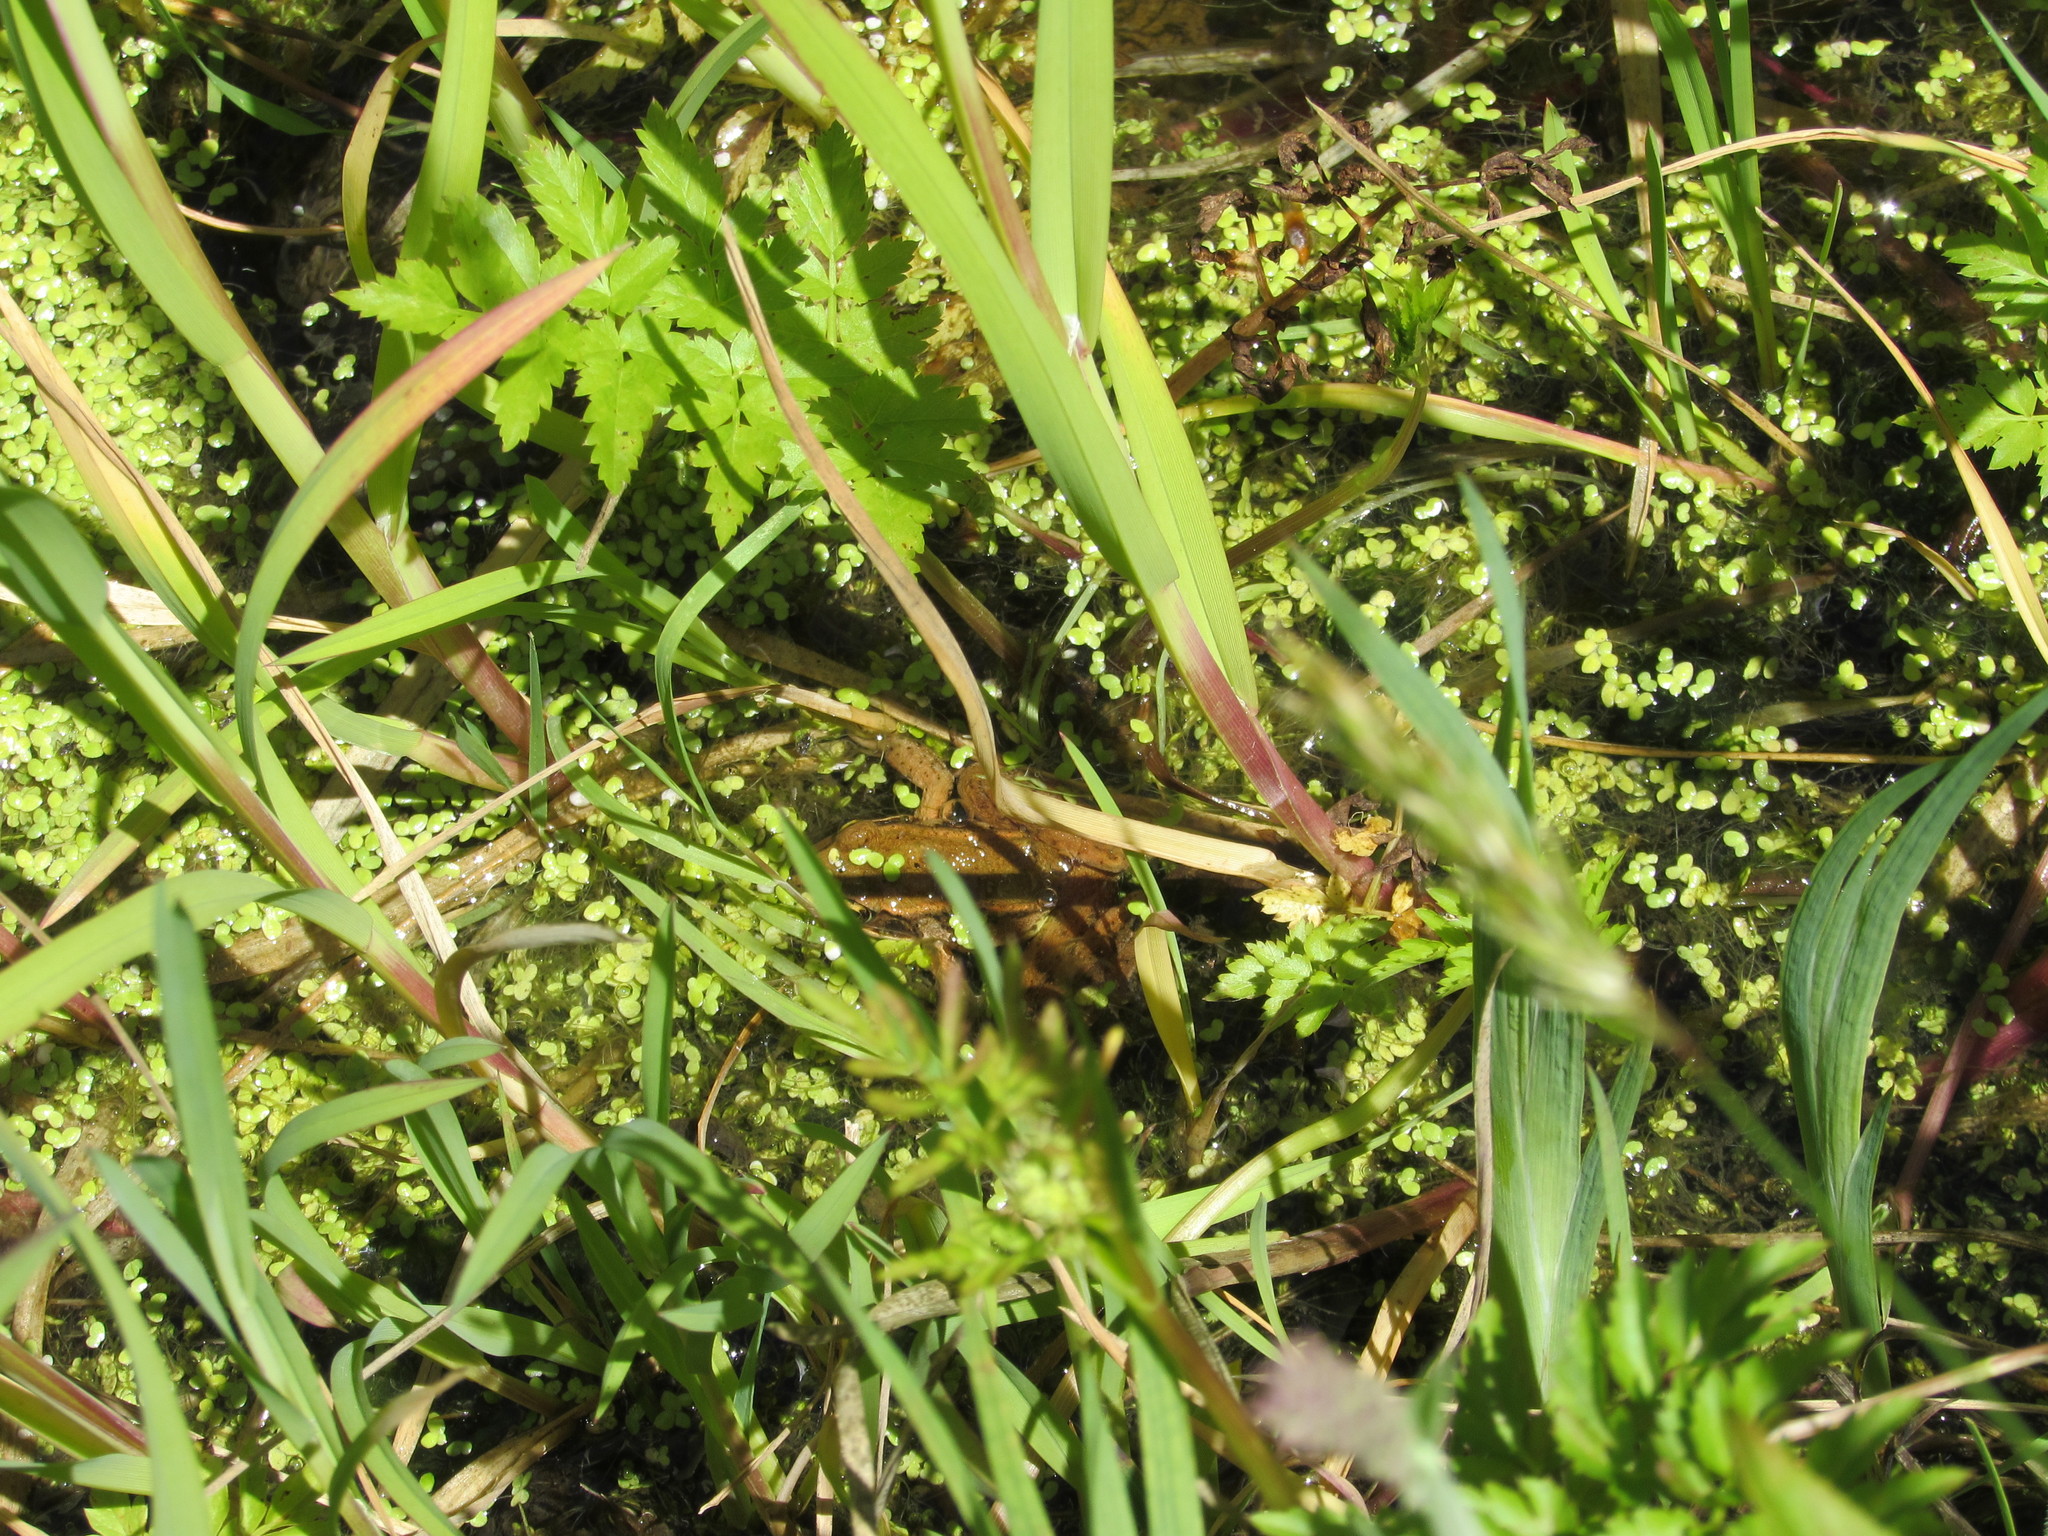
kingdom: Animalia
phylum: Chordata
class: Amphibia
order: Anura
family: Ranidae
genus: Rana
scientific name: Rana aurora
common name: Red-legged frog
